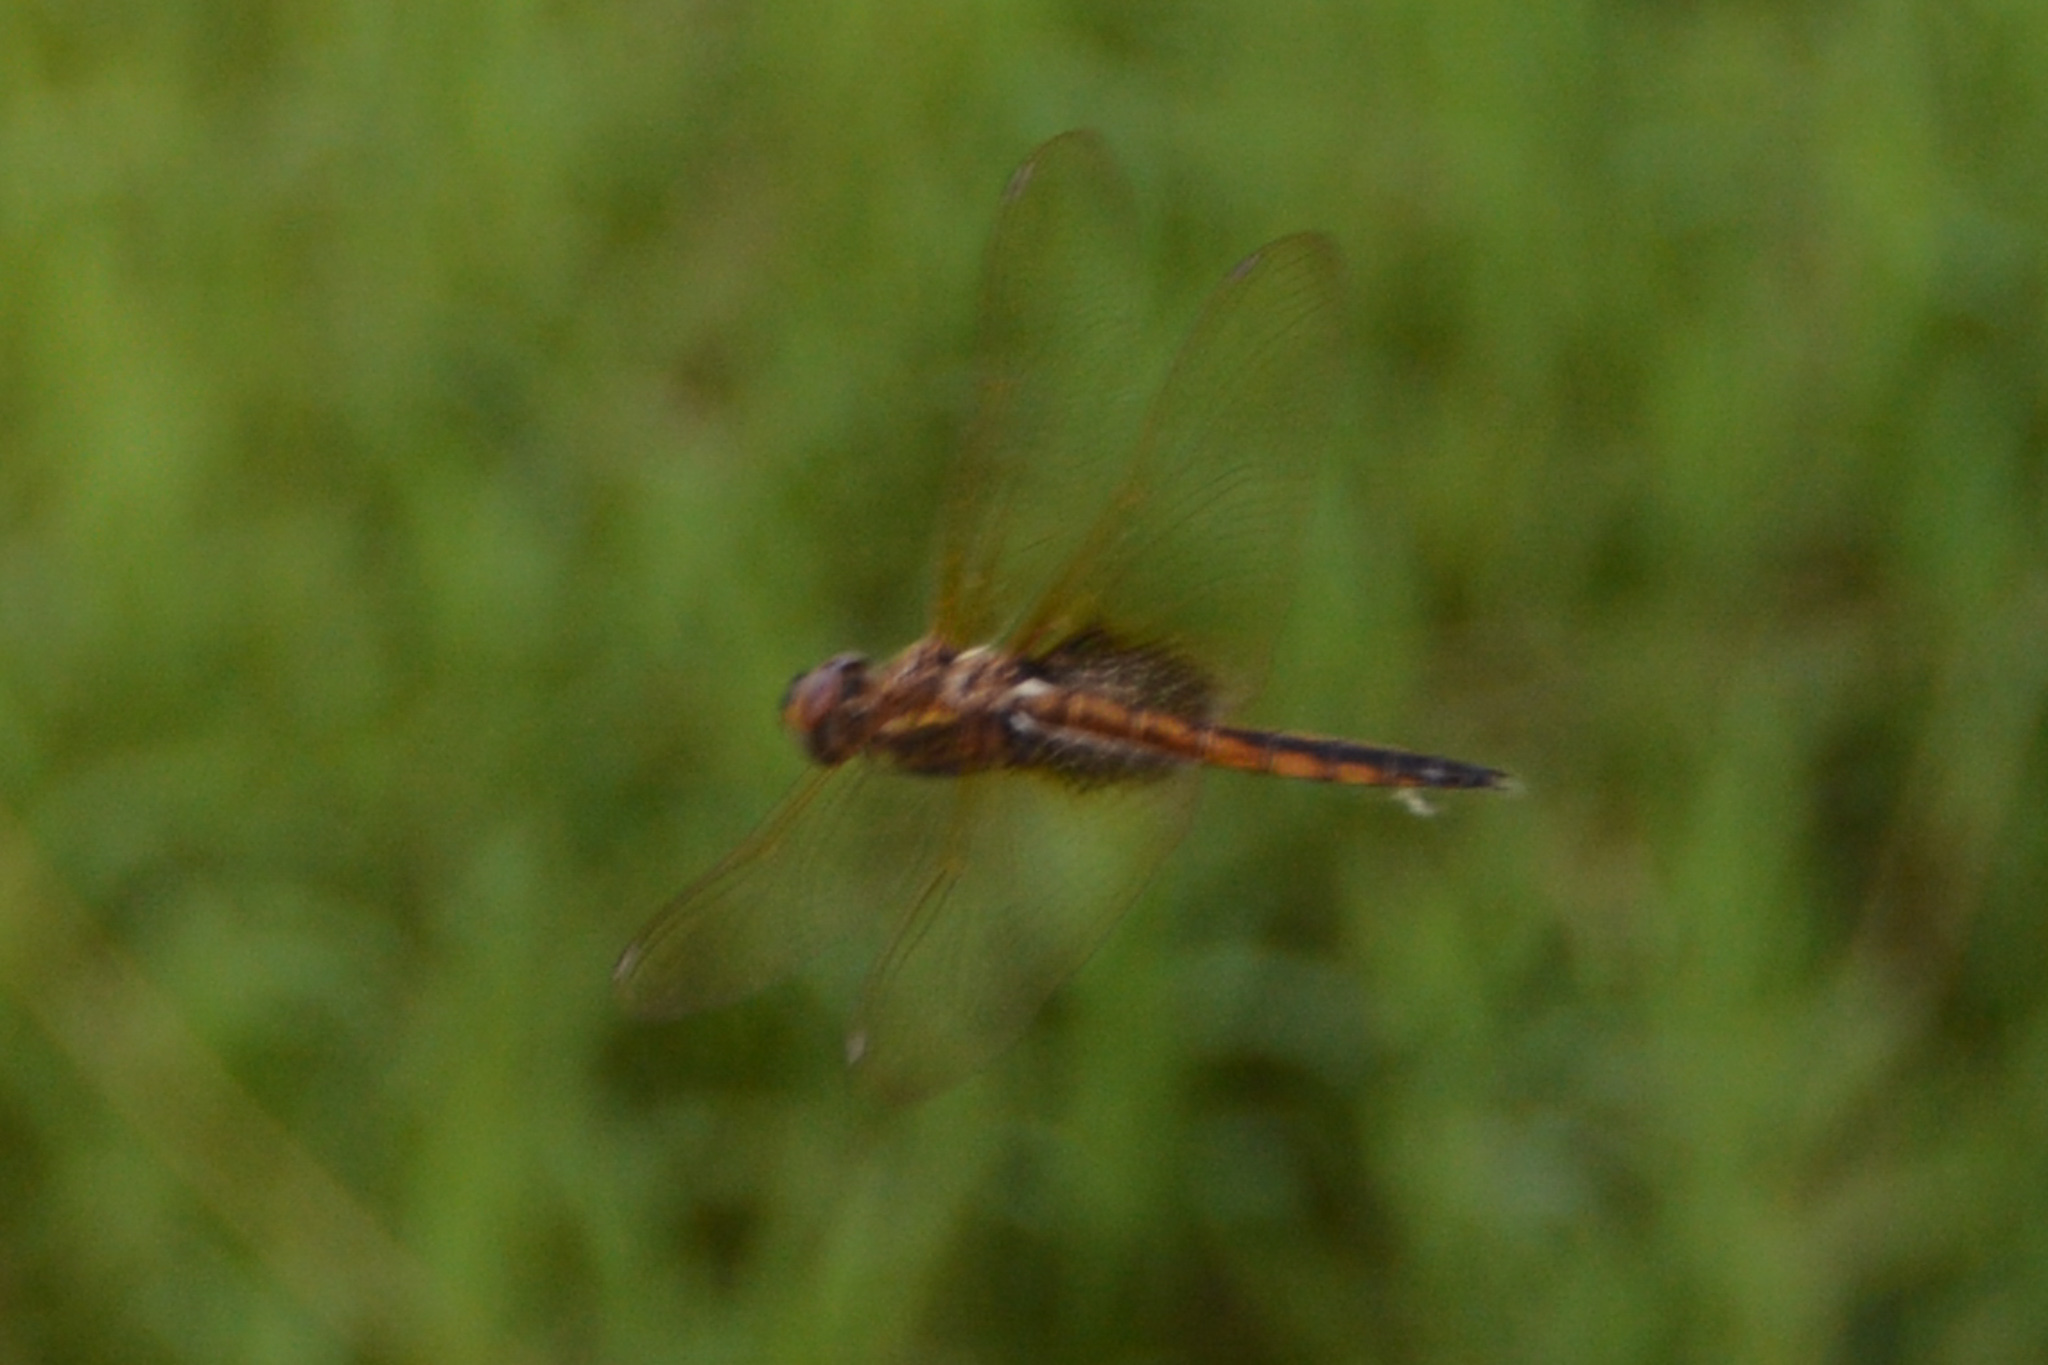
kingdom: Animalia
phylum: Arthropoda
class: Insecta
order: Odonata
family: Libellulidae
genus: Miathyria
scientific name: Miathyria marcella
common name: Hyacinth glider
